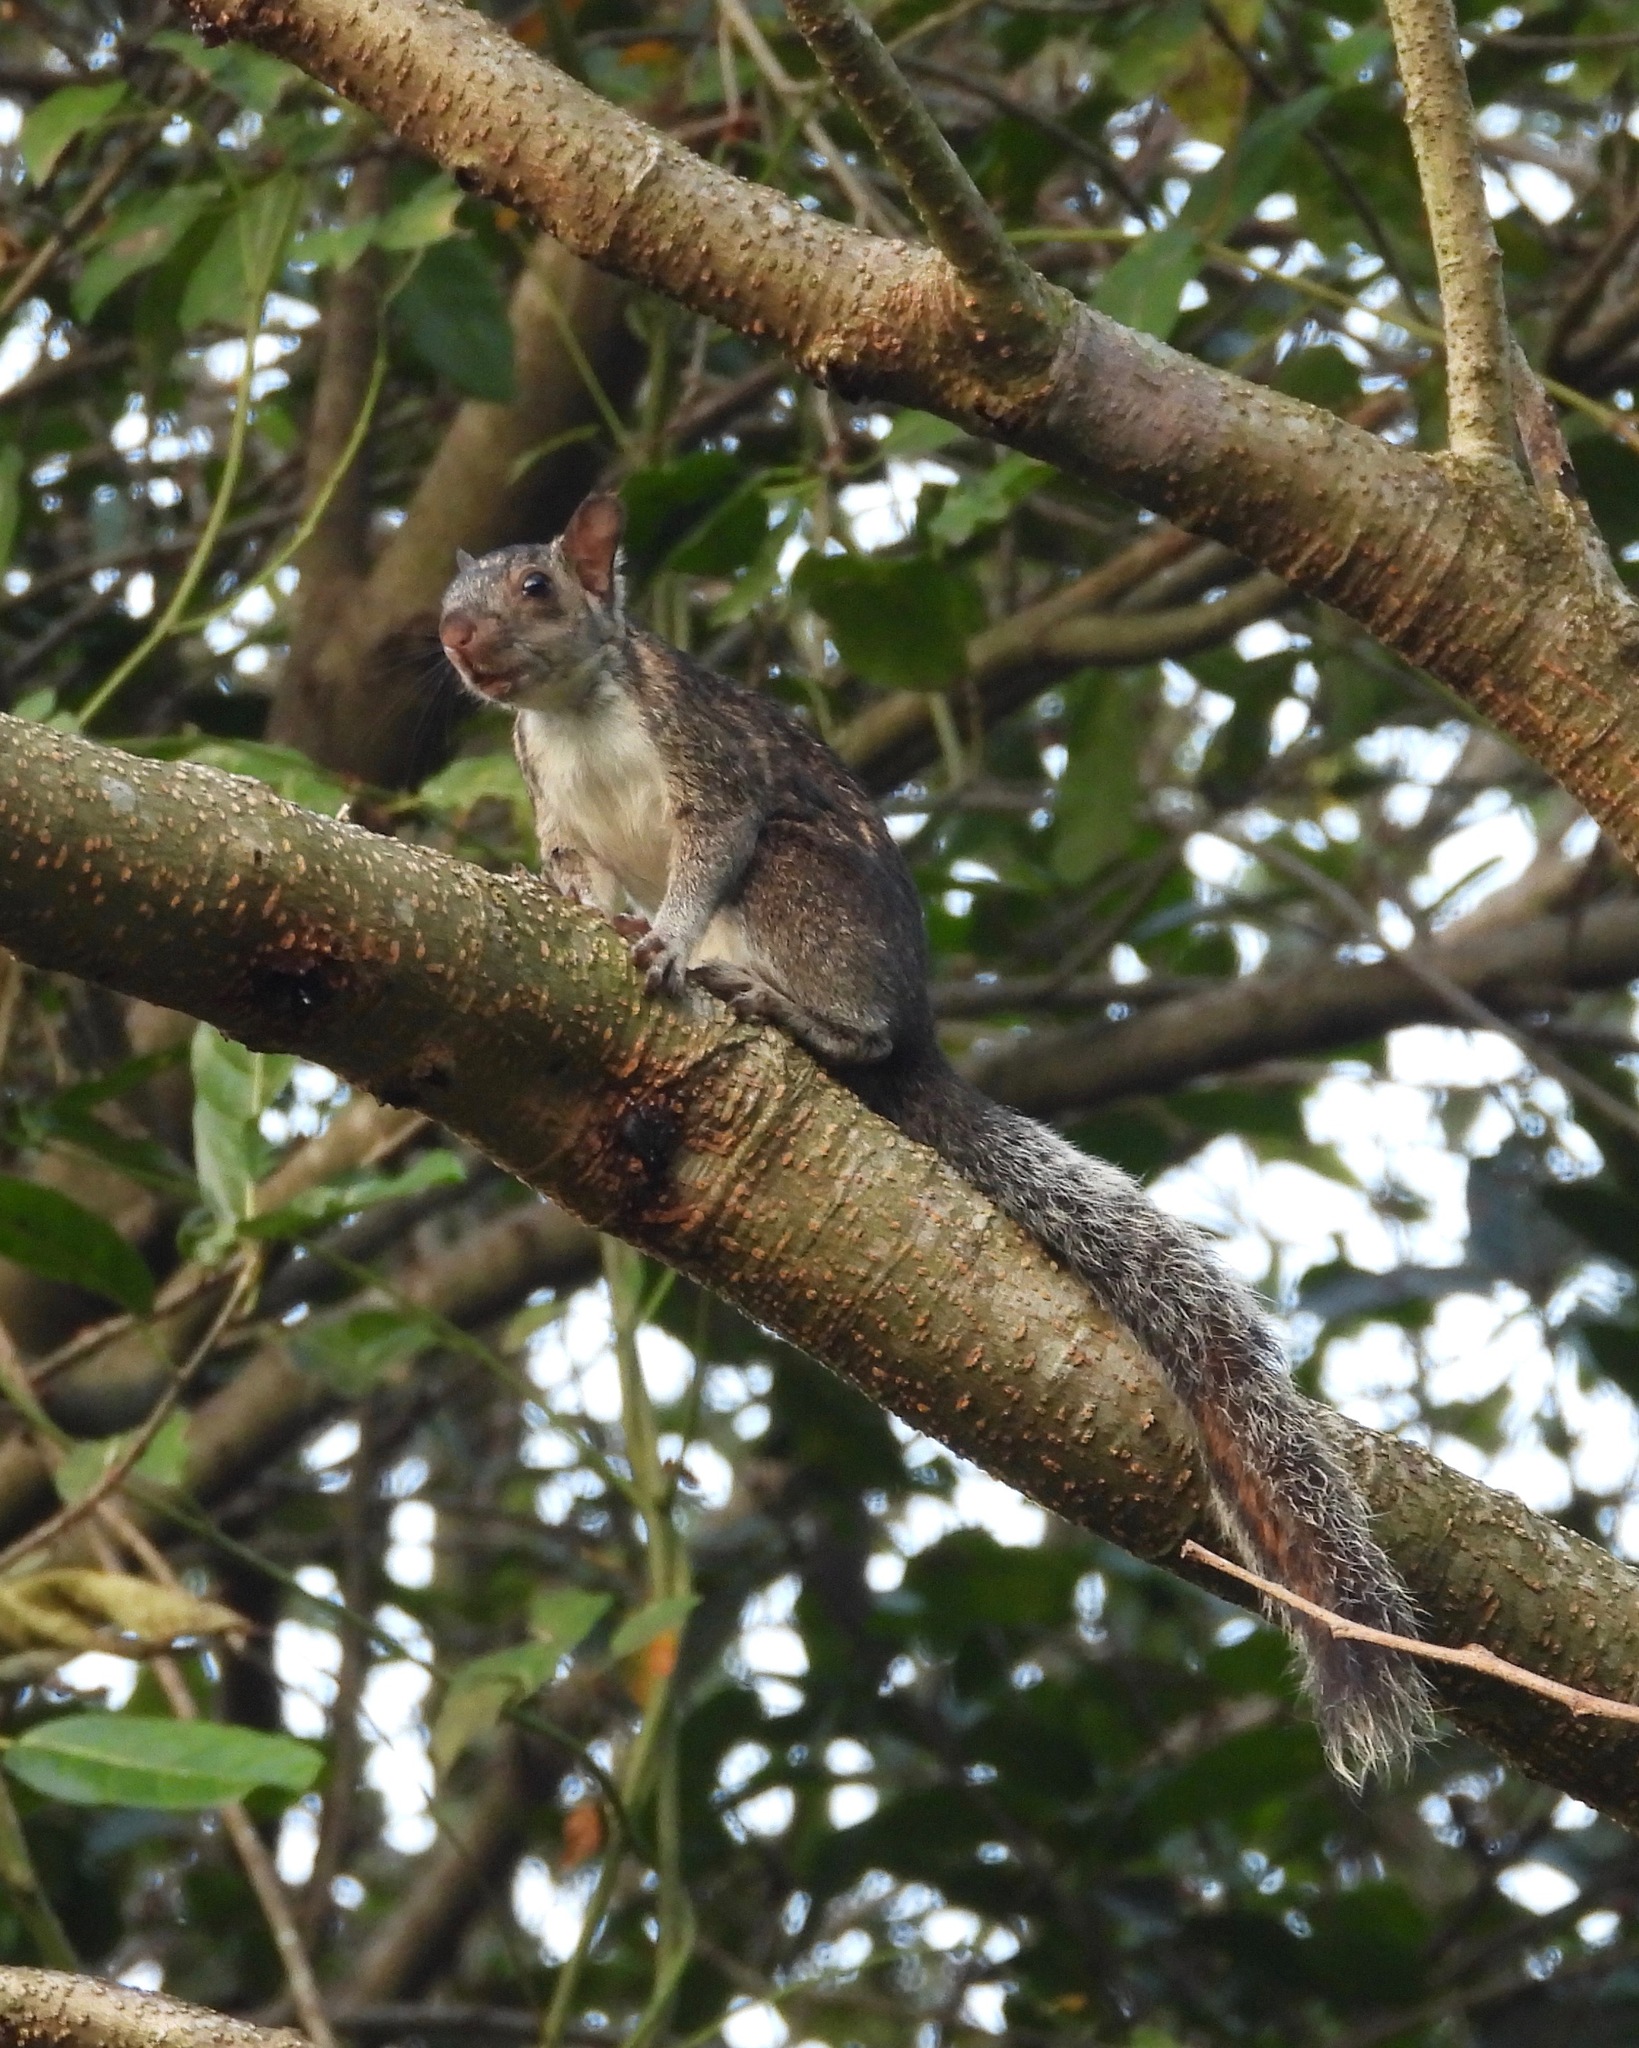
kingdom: Animalia
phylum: Chordata
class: Mammalia
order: Rodentia
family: Sciuridae
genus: Sciurus
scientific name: Sciurus variegatoides
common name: Variegated squirrel
